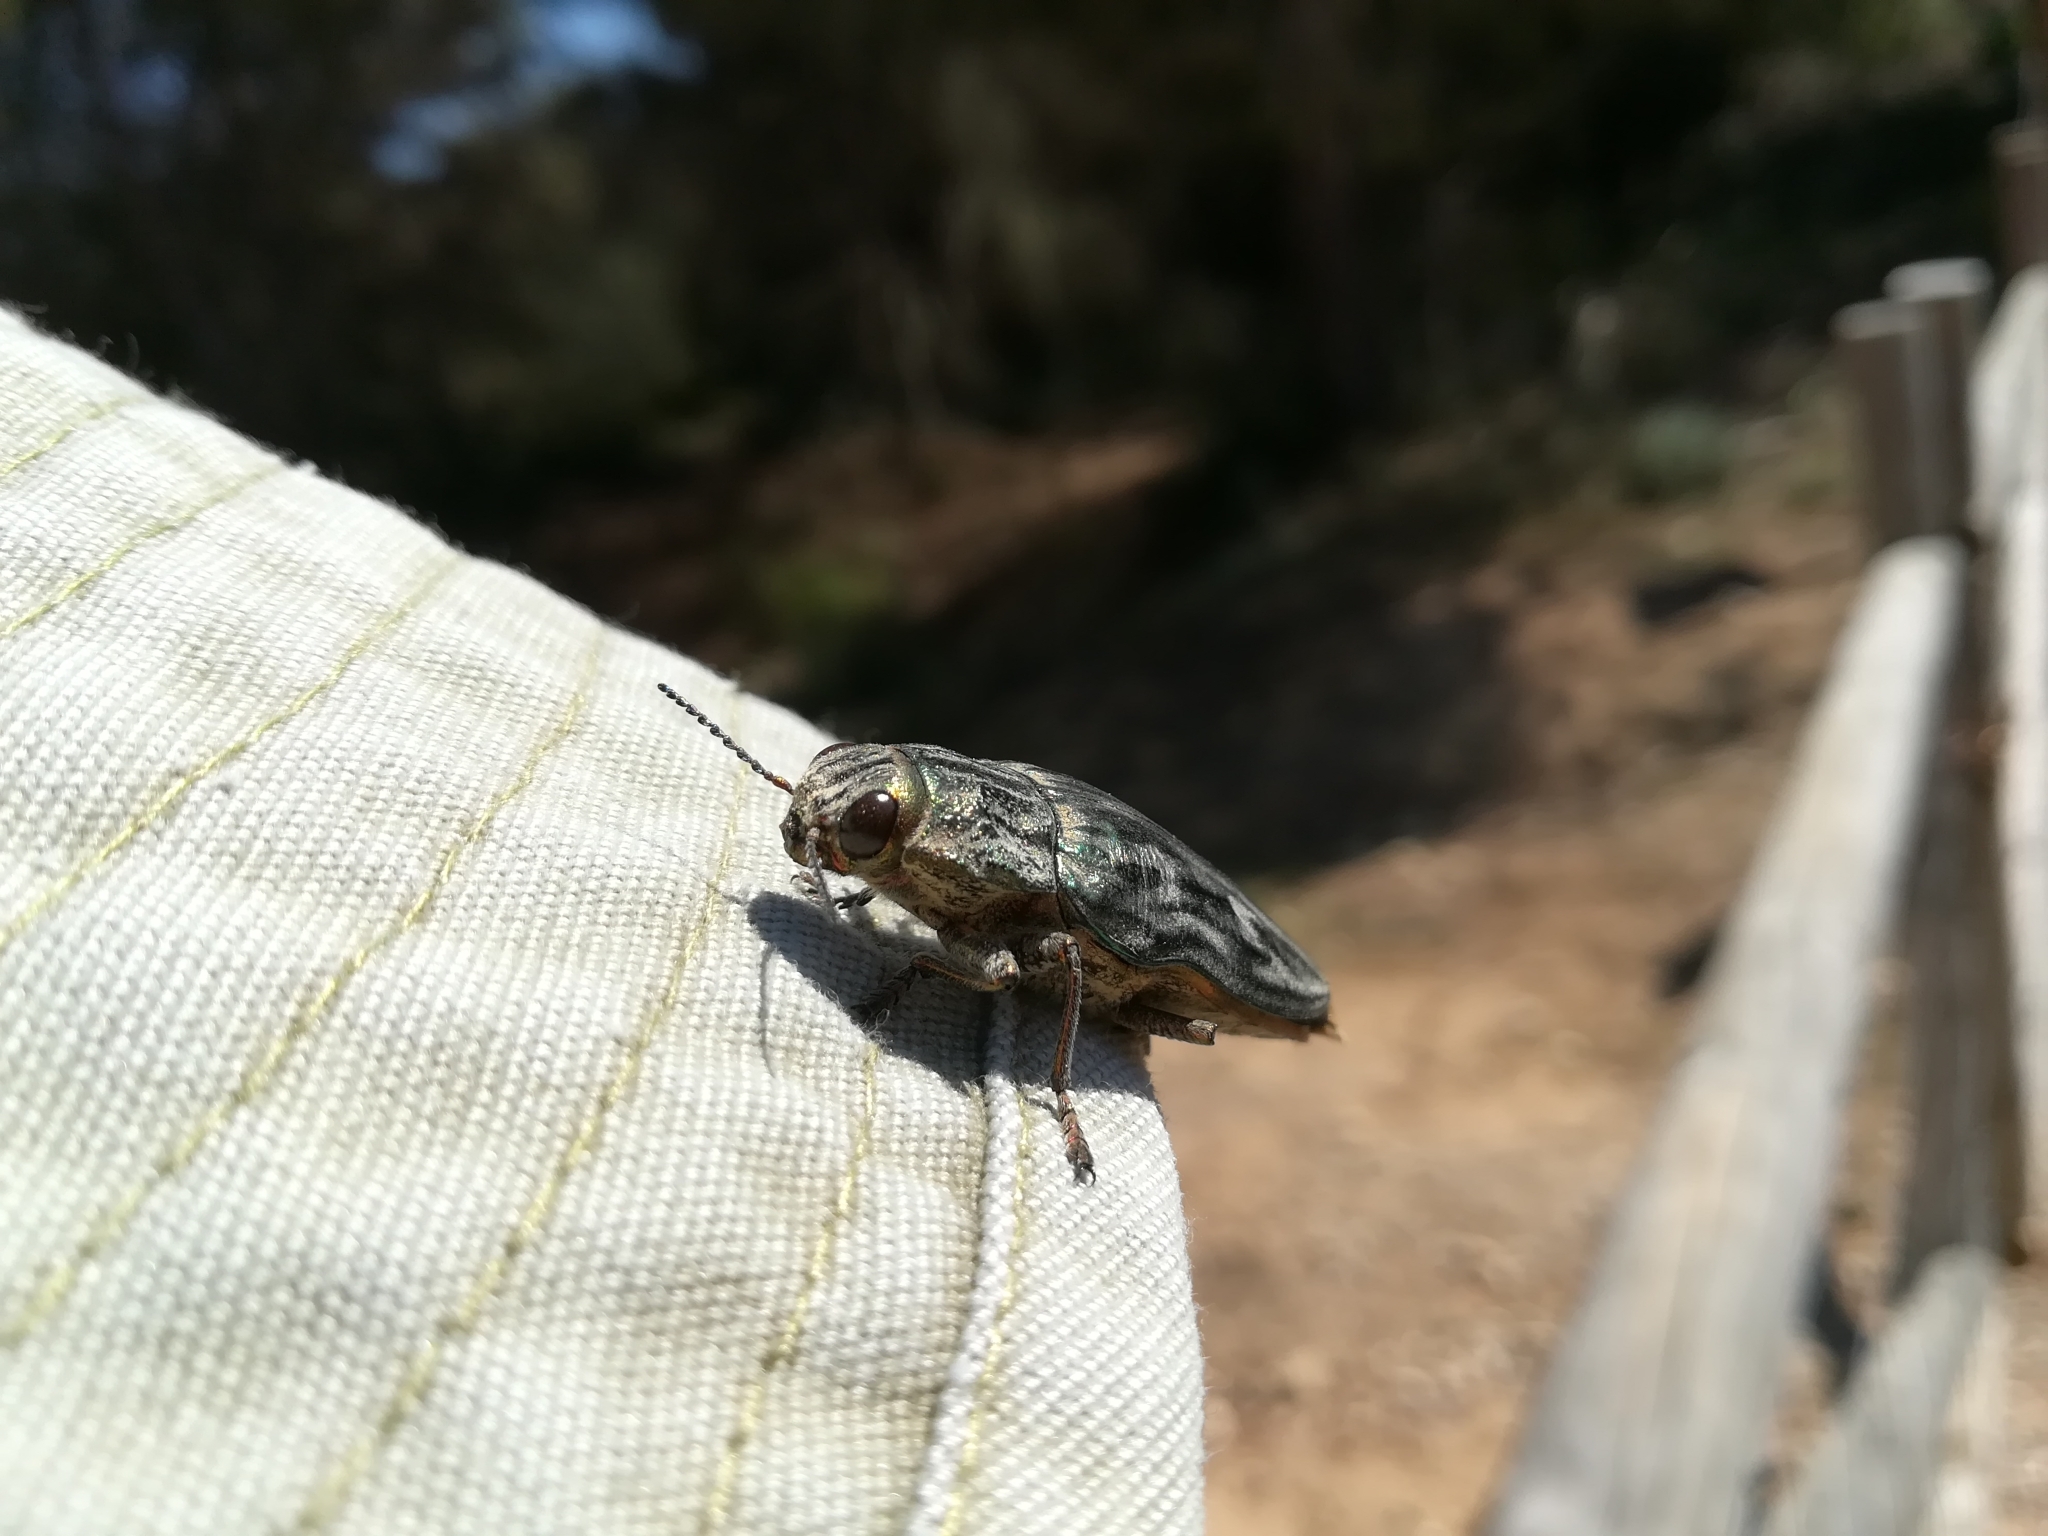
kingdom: Animalia
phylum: Arthropoda
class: Insecta
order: Coleoptera
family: Buprestidae
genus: Chalcophora
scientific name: Chalcophora massiliensis
